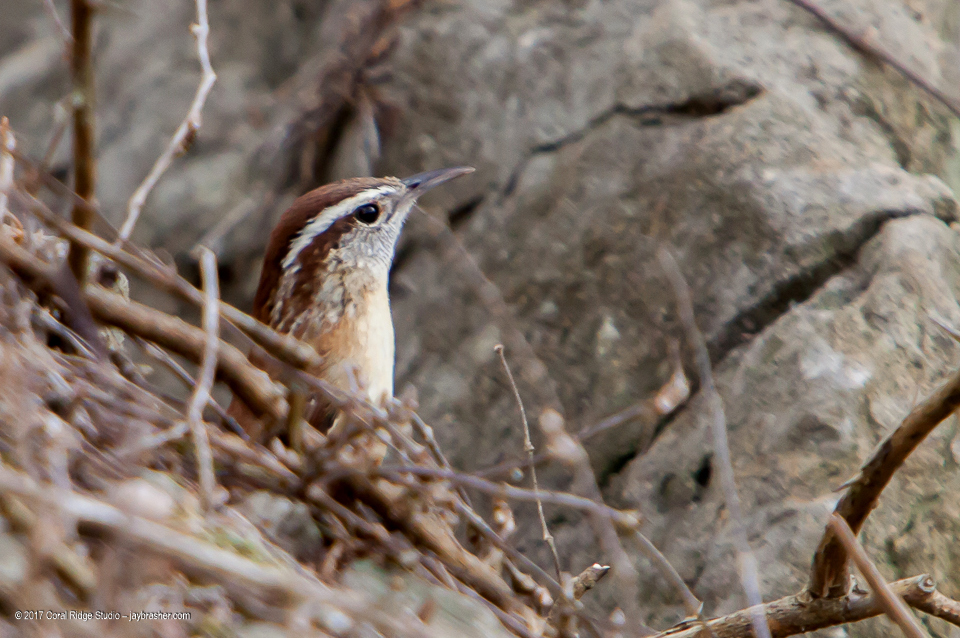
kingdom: Animalia
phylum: Chordata
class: Aves
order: Passeriformes
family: Troglodytidae
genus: Thryothorus
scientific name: Thryothorus ludovicianus
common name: Carolina wren
